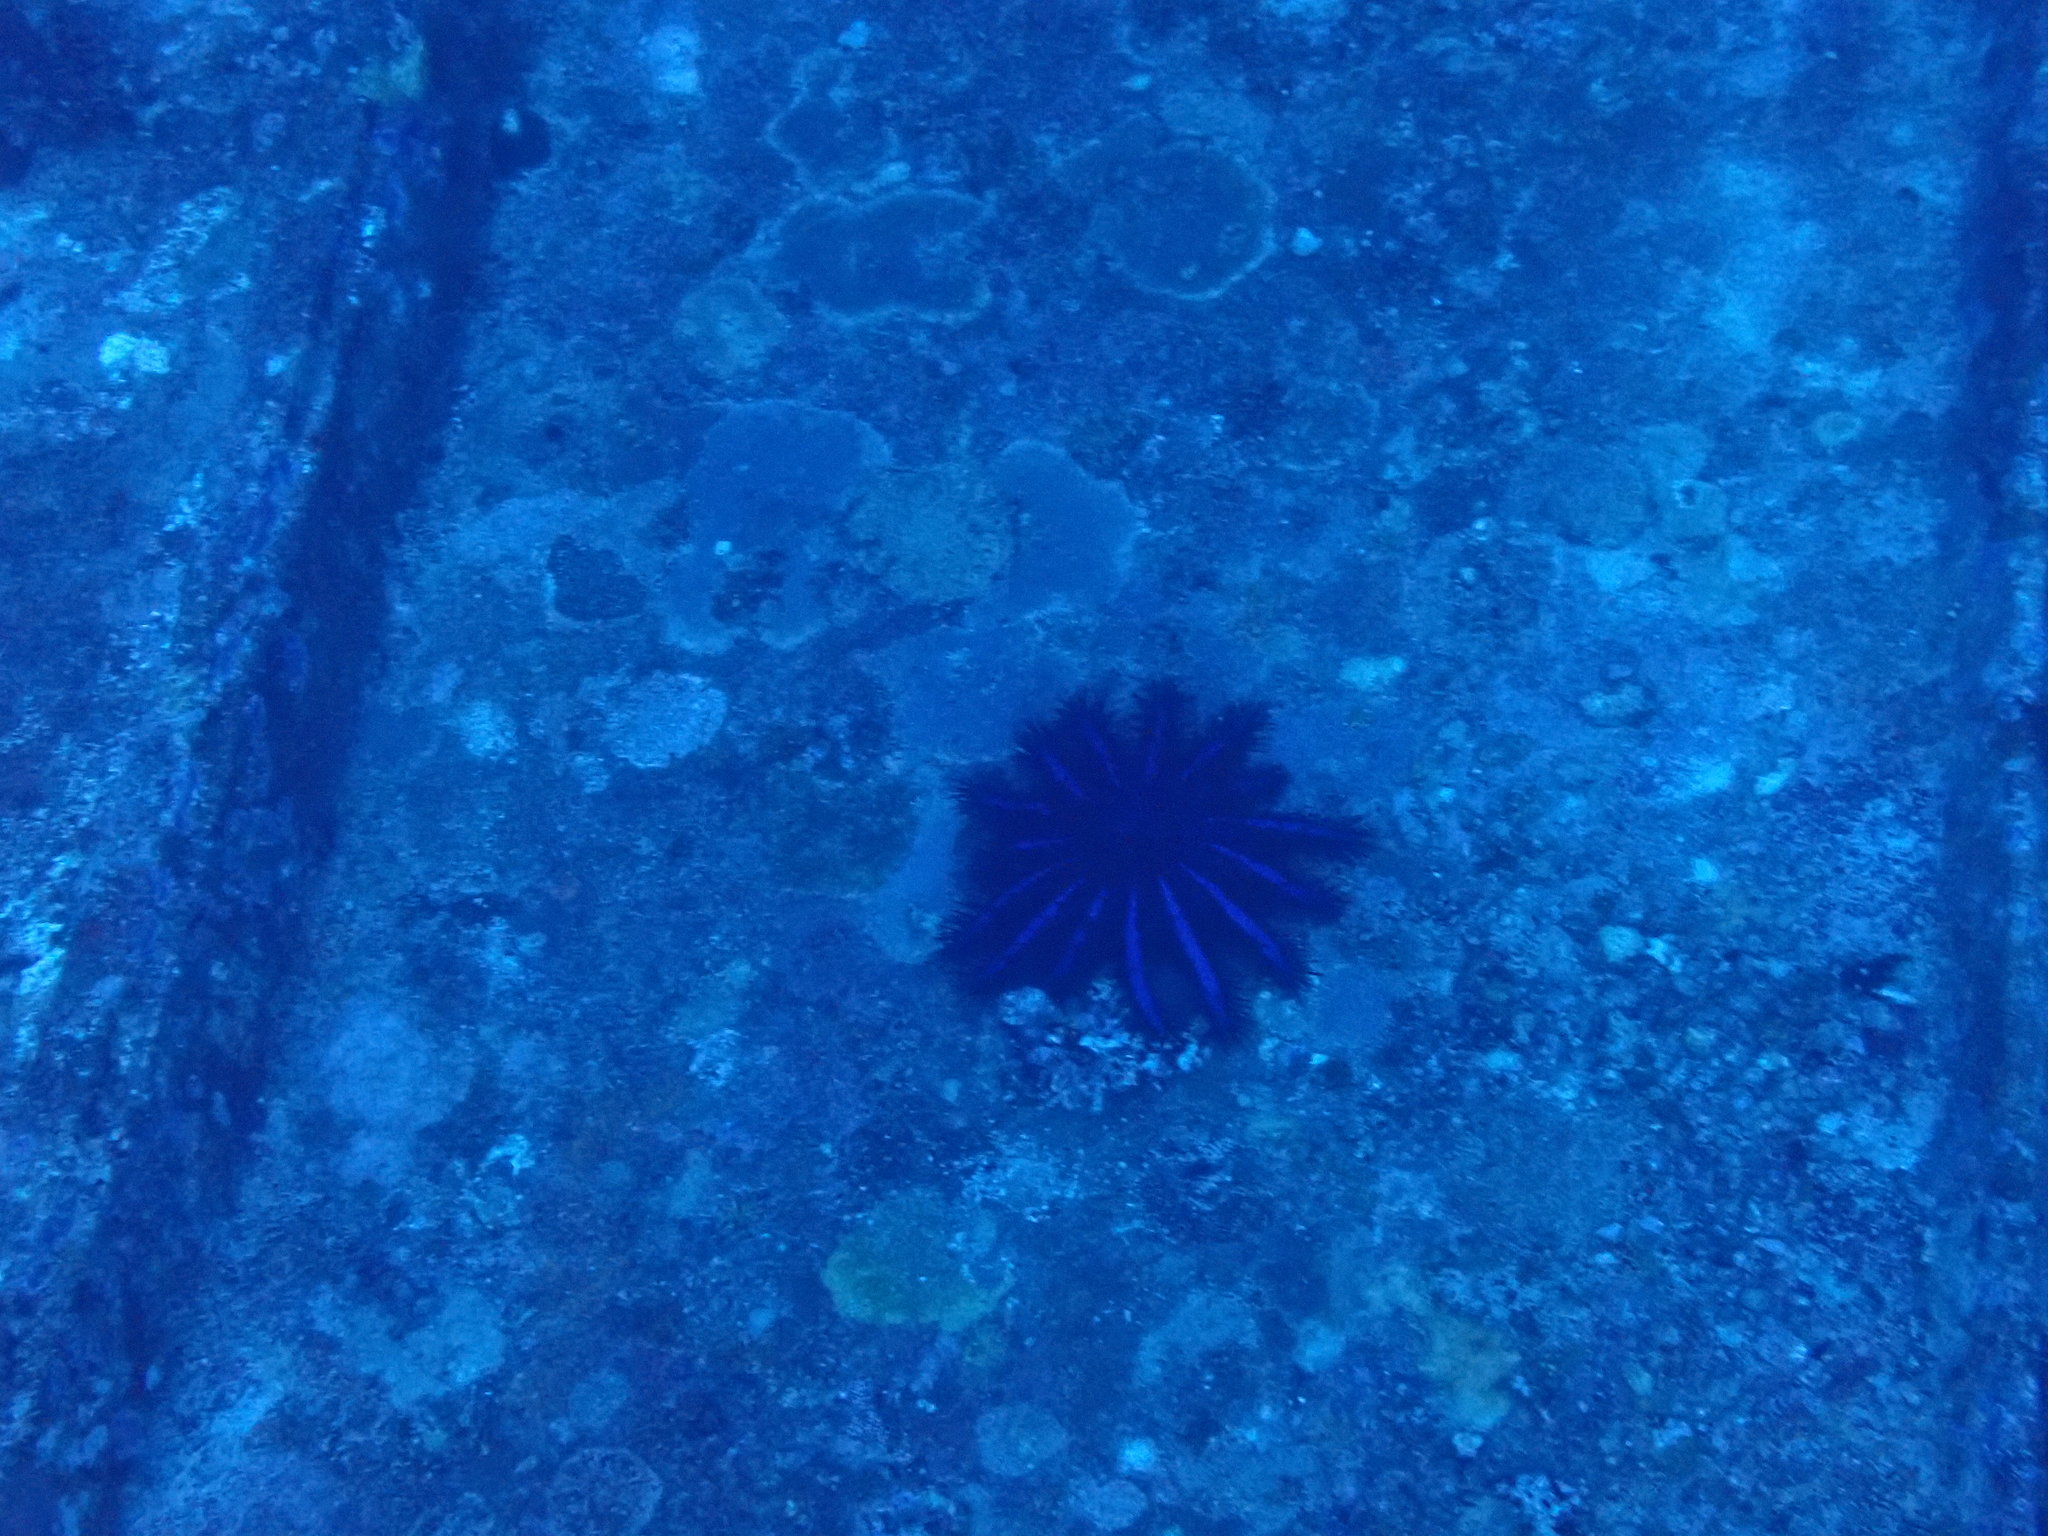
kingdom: Animalia
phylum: Echinodermata
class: Asteroidea
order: Valvatida
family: Acanthasteridae
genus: Acanthaster
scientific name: Acanthaster planci
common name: Crown-of-thorns
